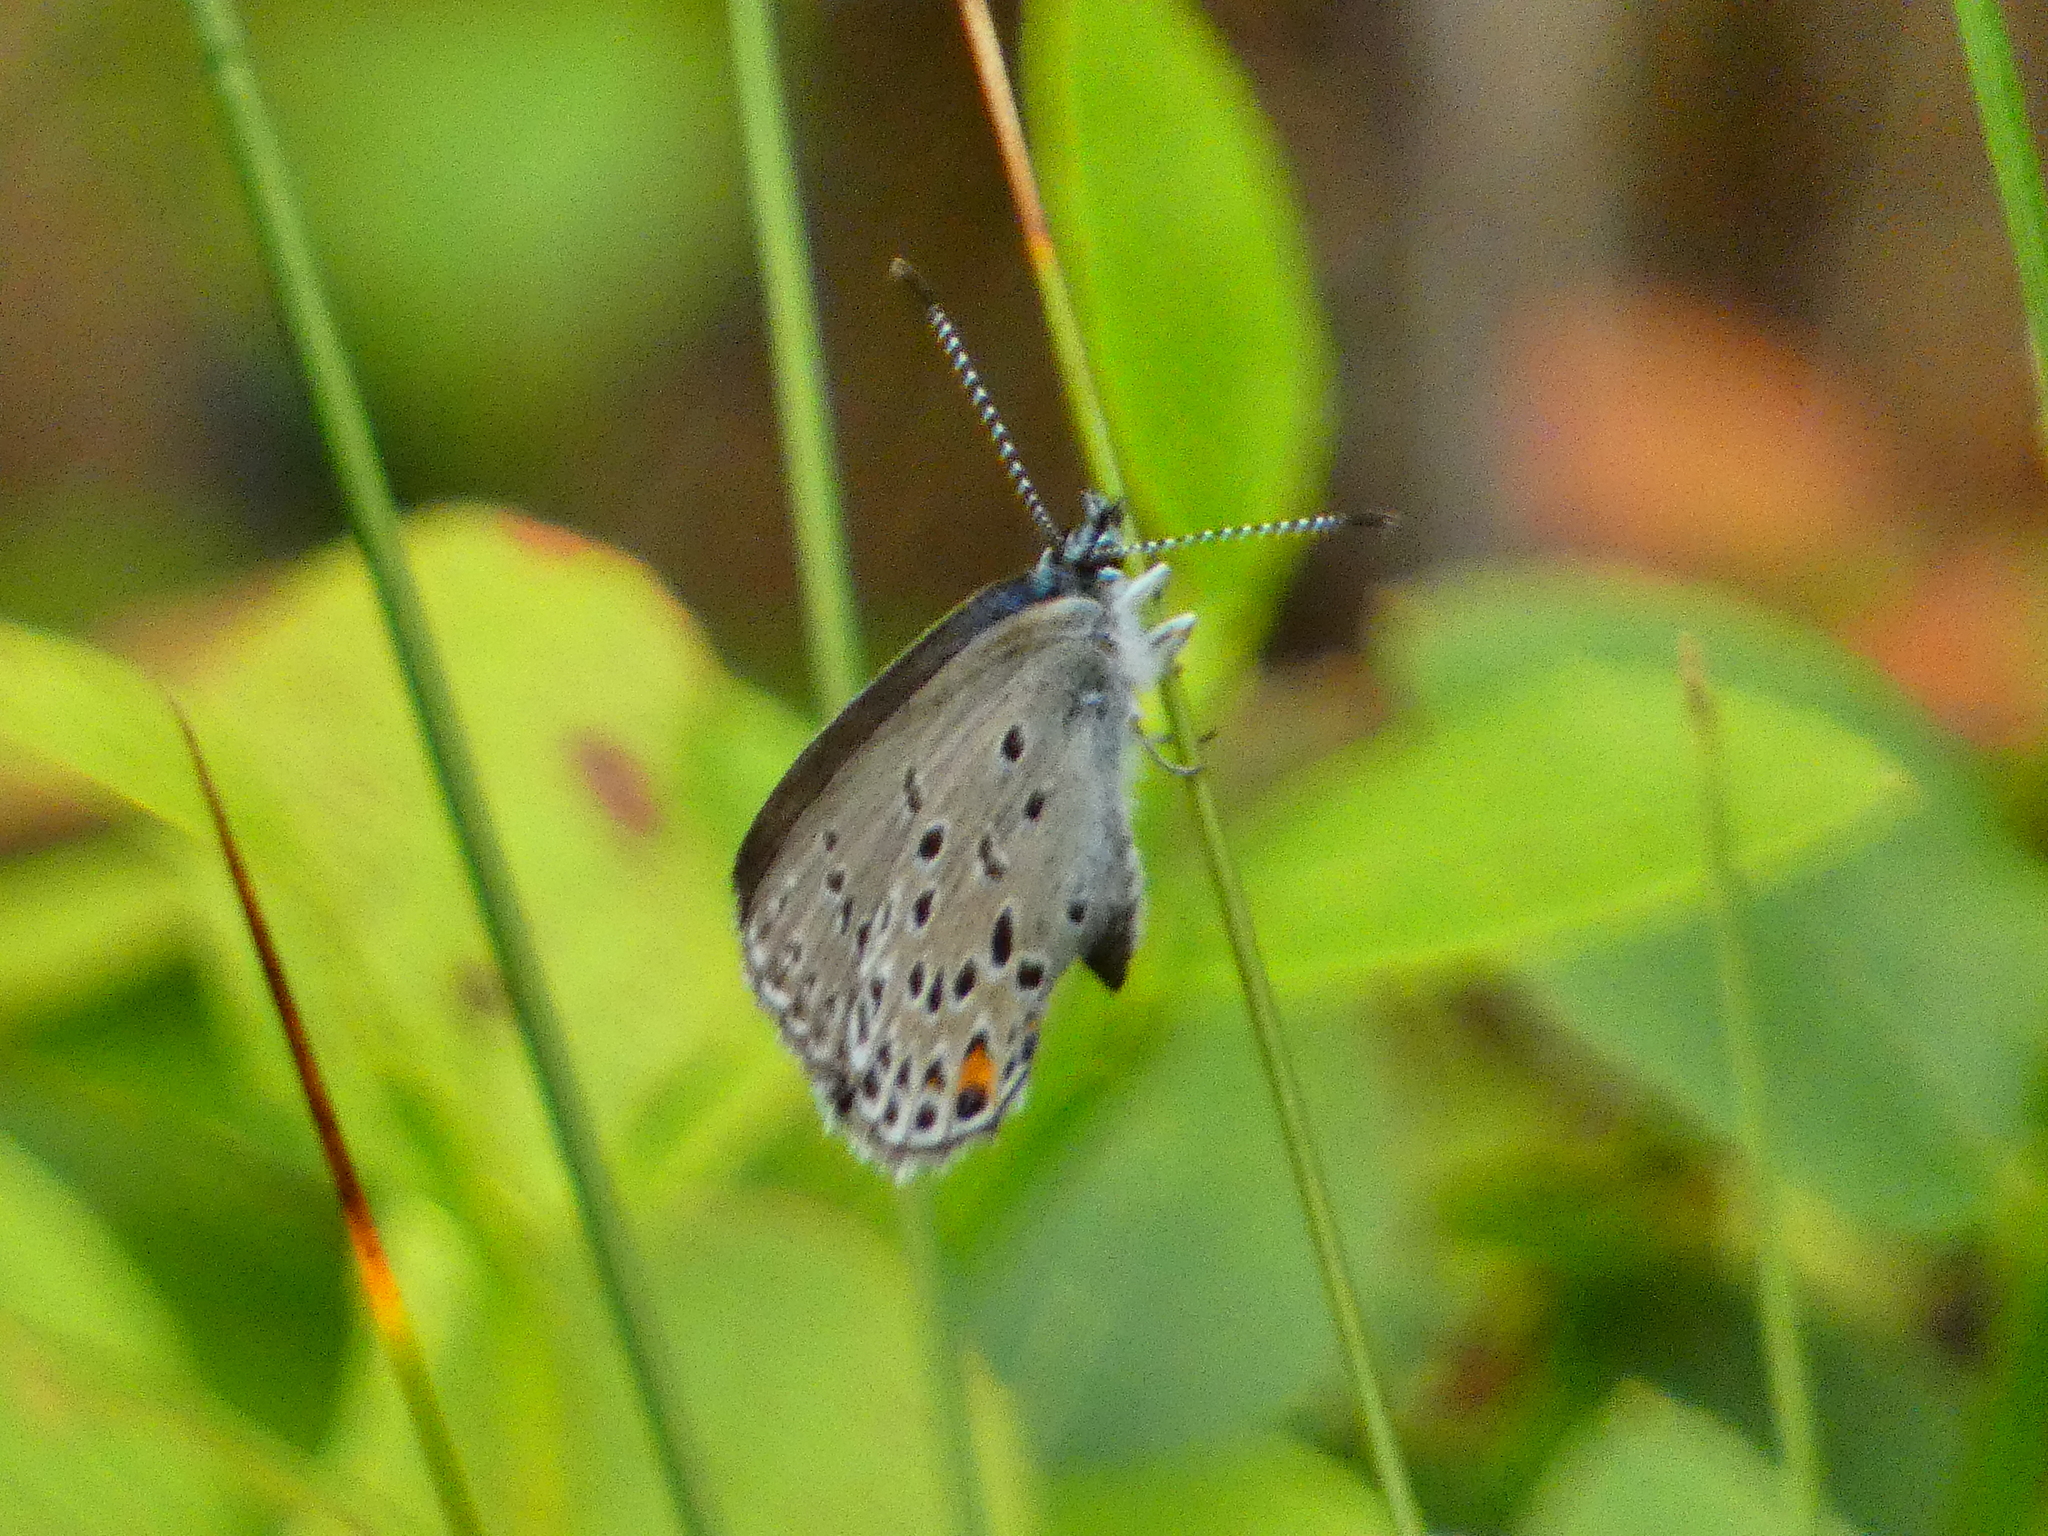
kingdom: Animalia
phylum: Arthropoda
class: Insecta
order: Lepidoptera
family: Lycaenidae
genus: Vacciniina
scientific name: Vacciniina optilete
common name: Cranberry blue
